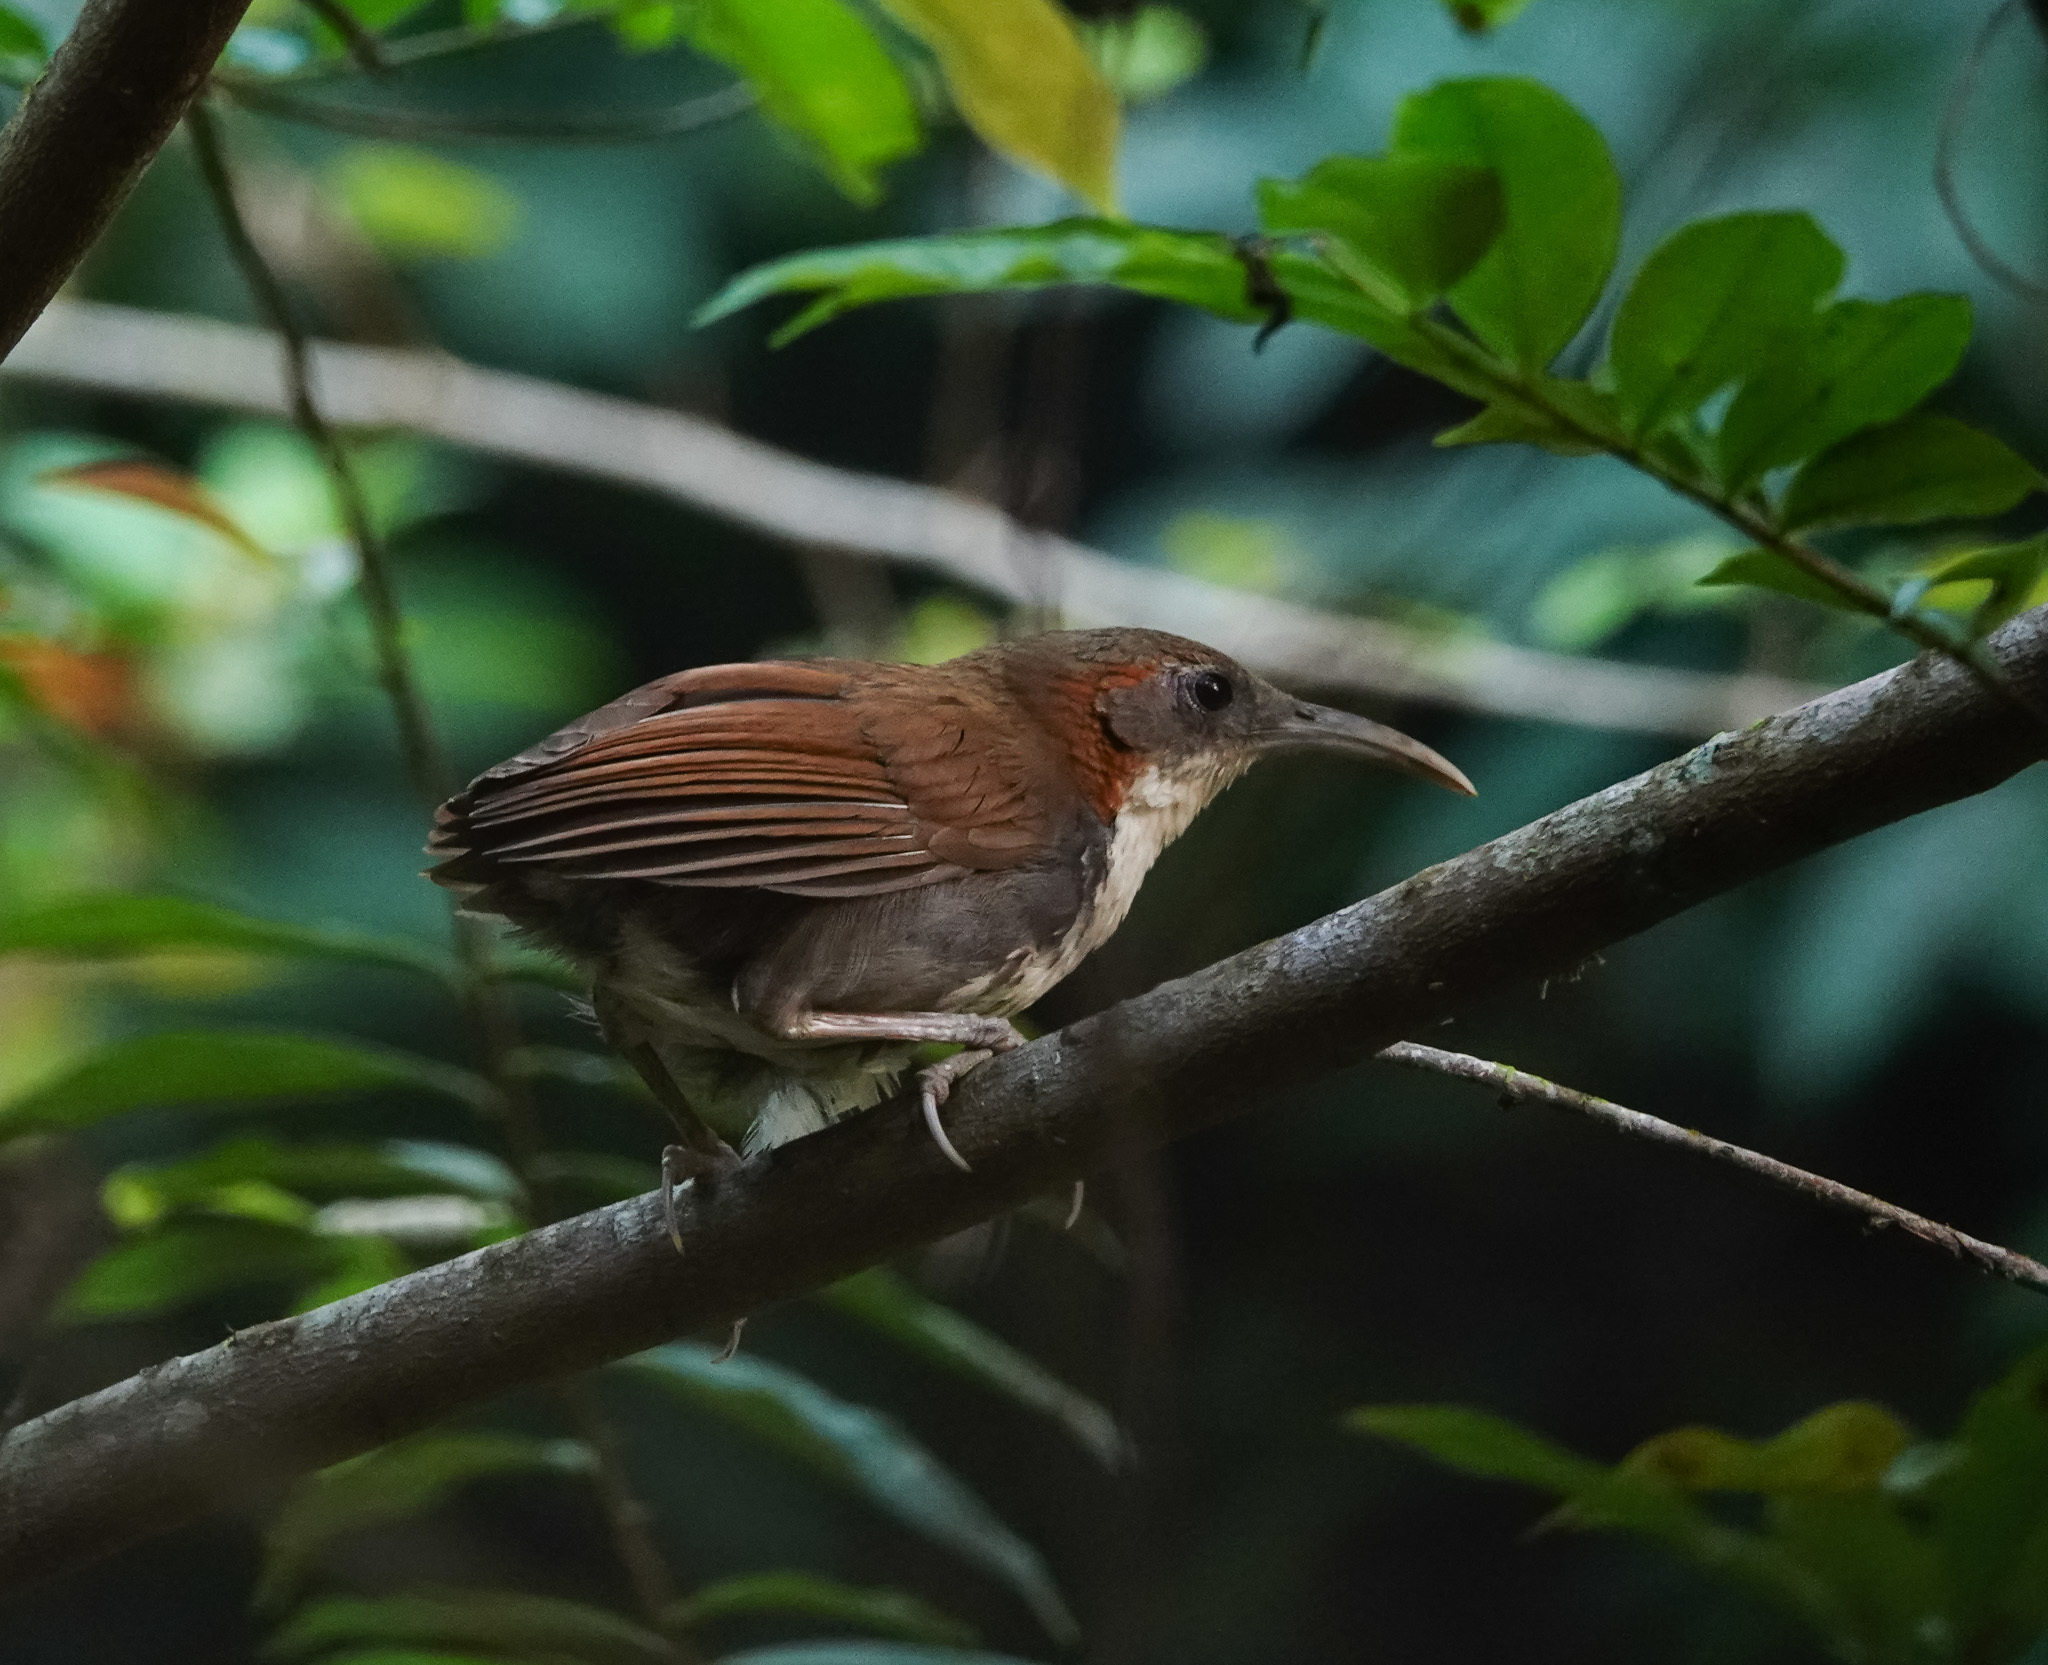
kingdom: Animalia
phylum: Chordata
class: Aves
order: Passeriformes
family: Timaliidae
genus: Pomatorhinus
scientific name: Pomatorhinus hypoleucos
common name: Large scimitar babbler
